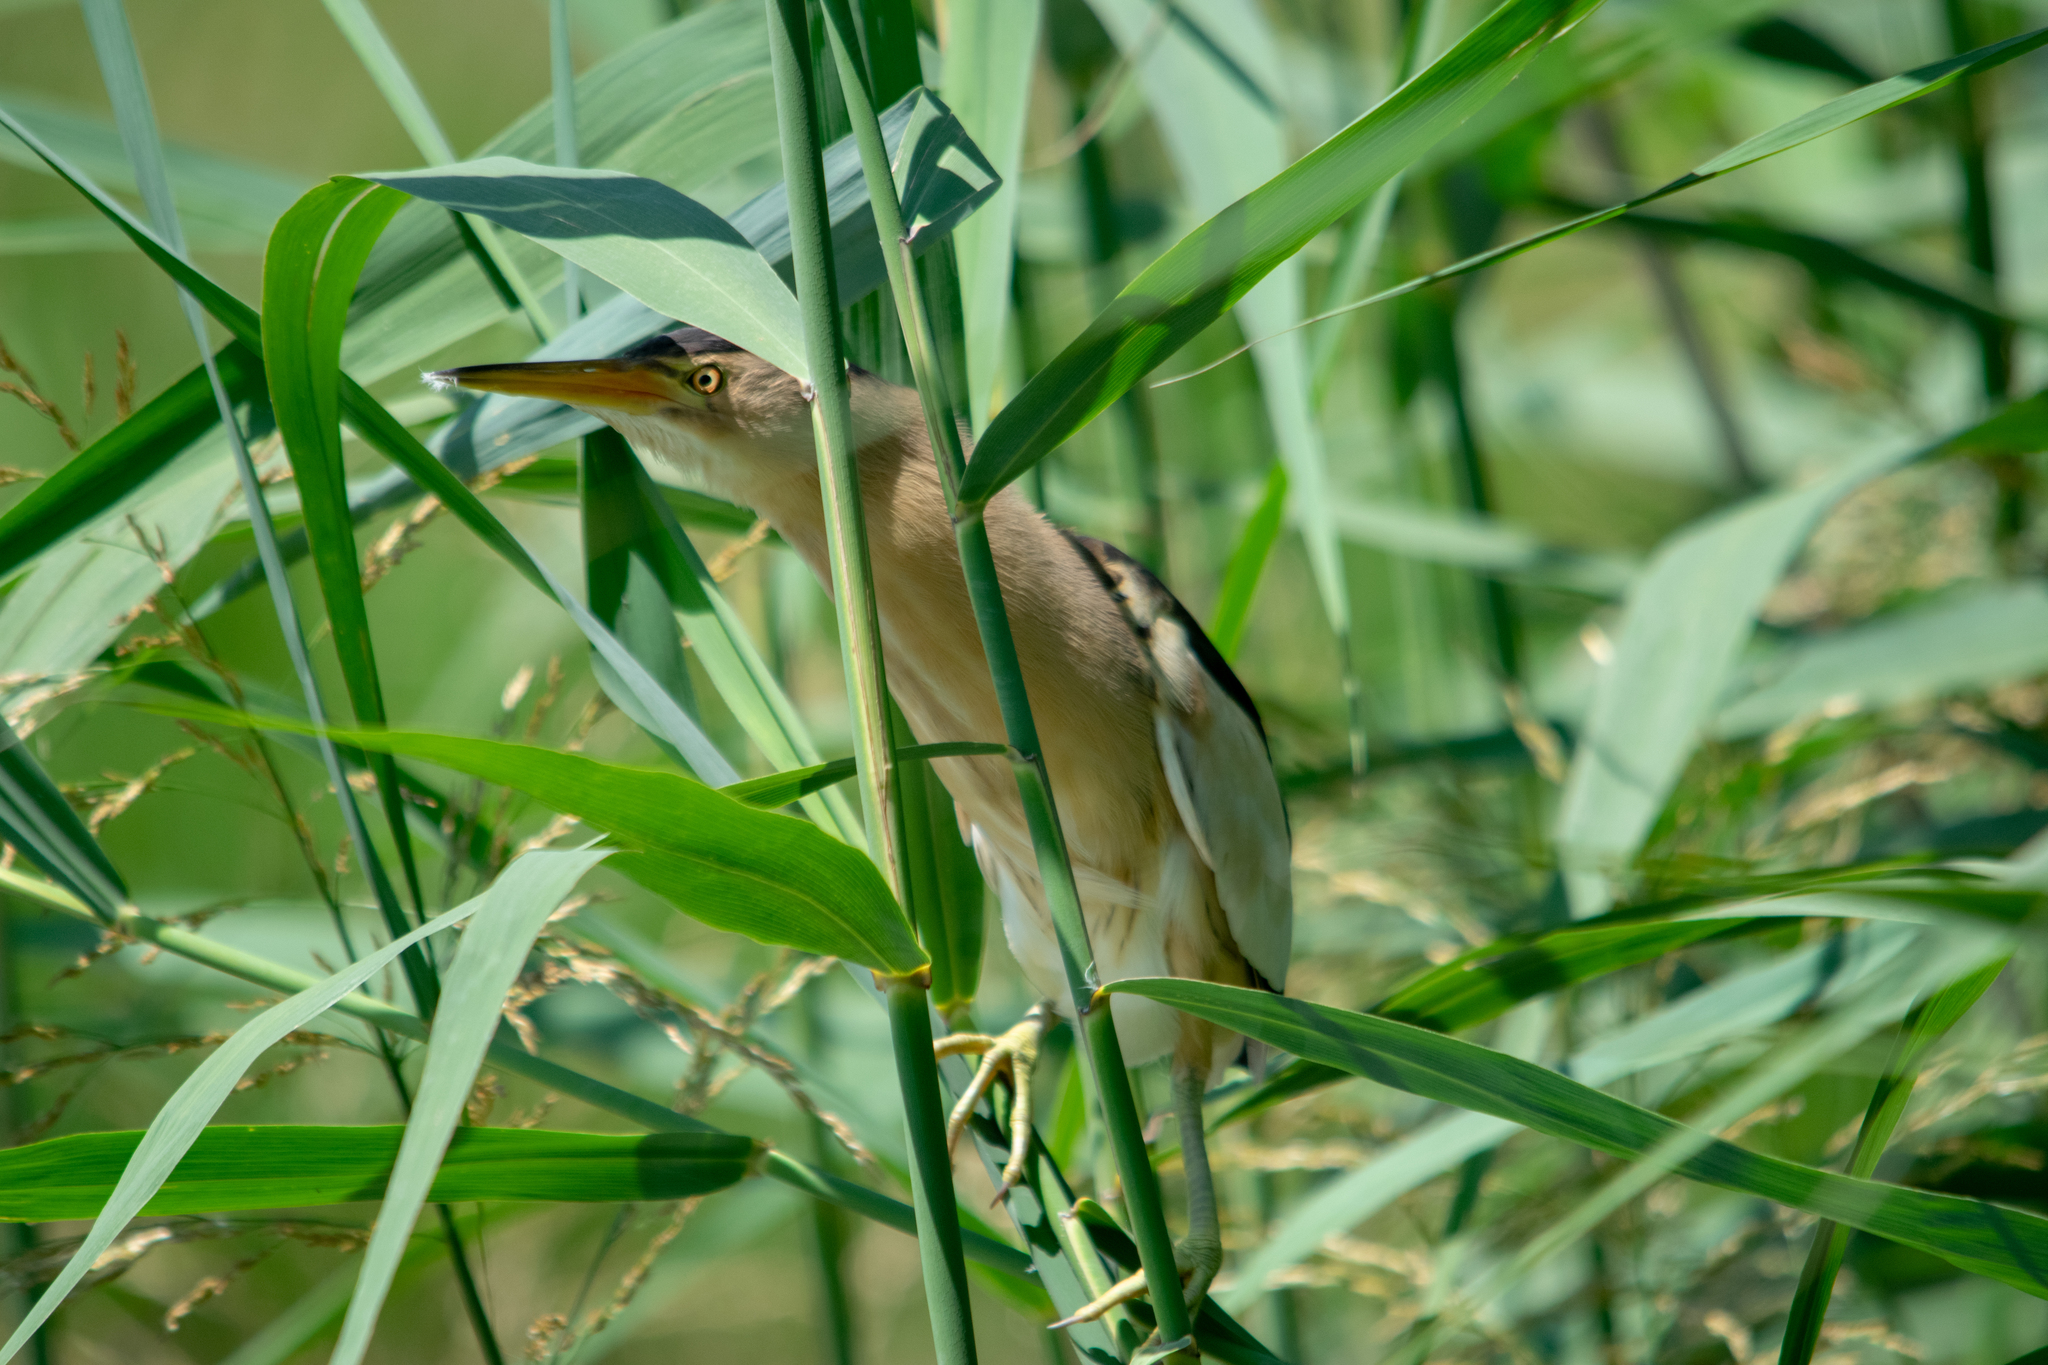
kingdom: Animalia
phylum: Chordata
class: Aves
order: Pelecaniformes
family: Ardeidae
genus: Ixobrychus
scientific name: Ixobrychus minutus
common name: Little bittern
